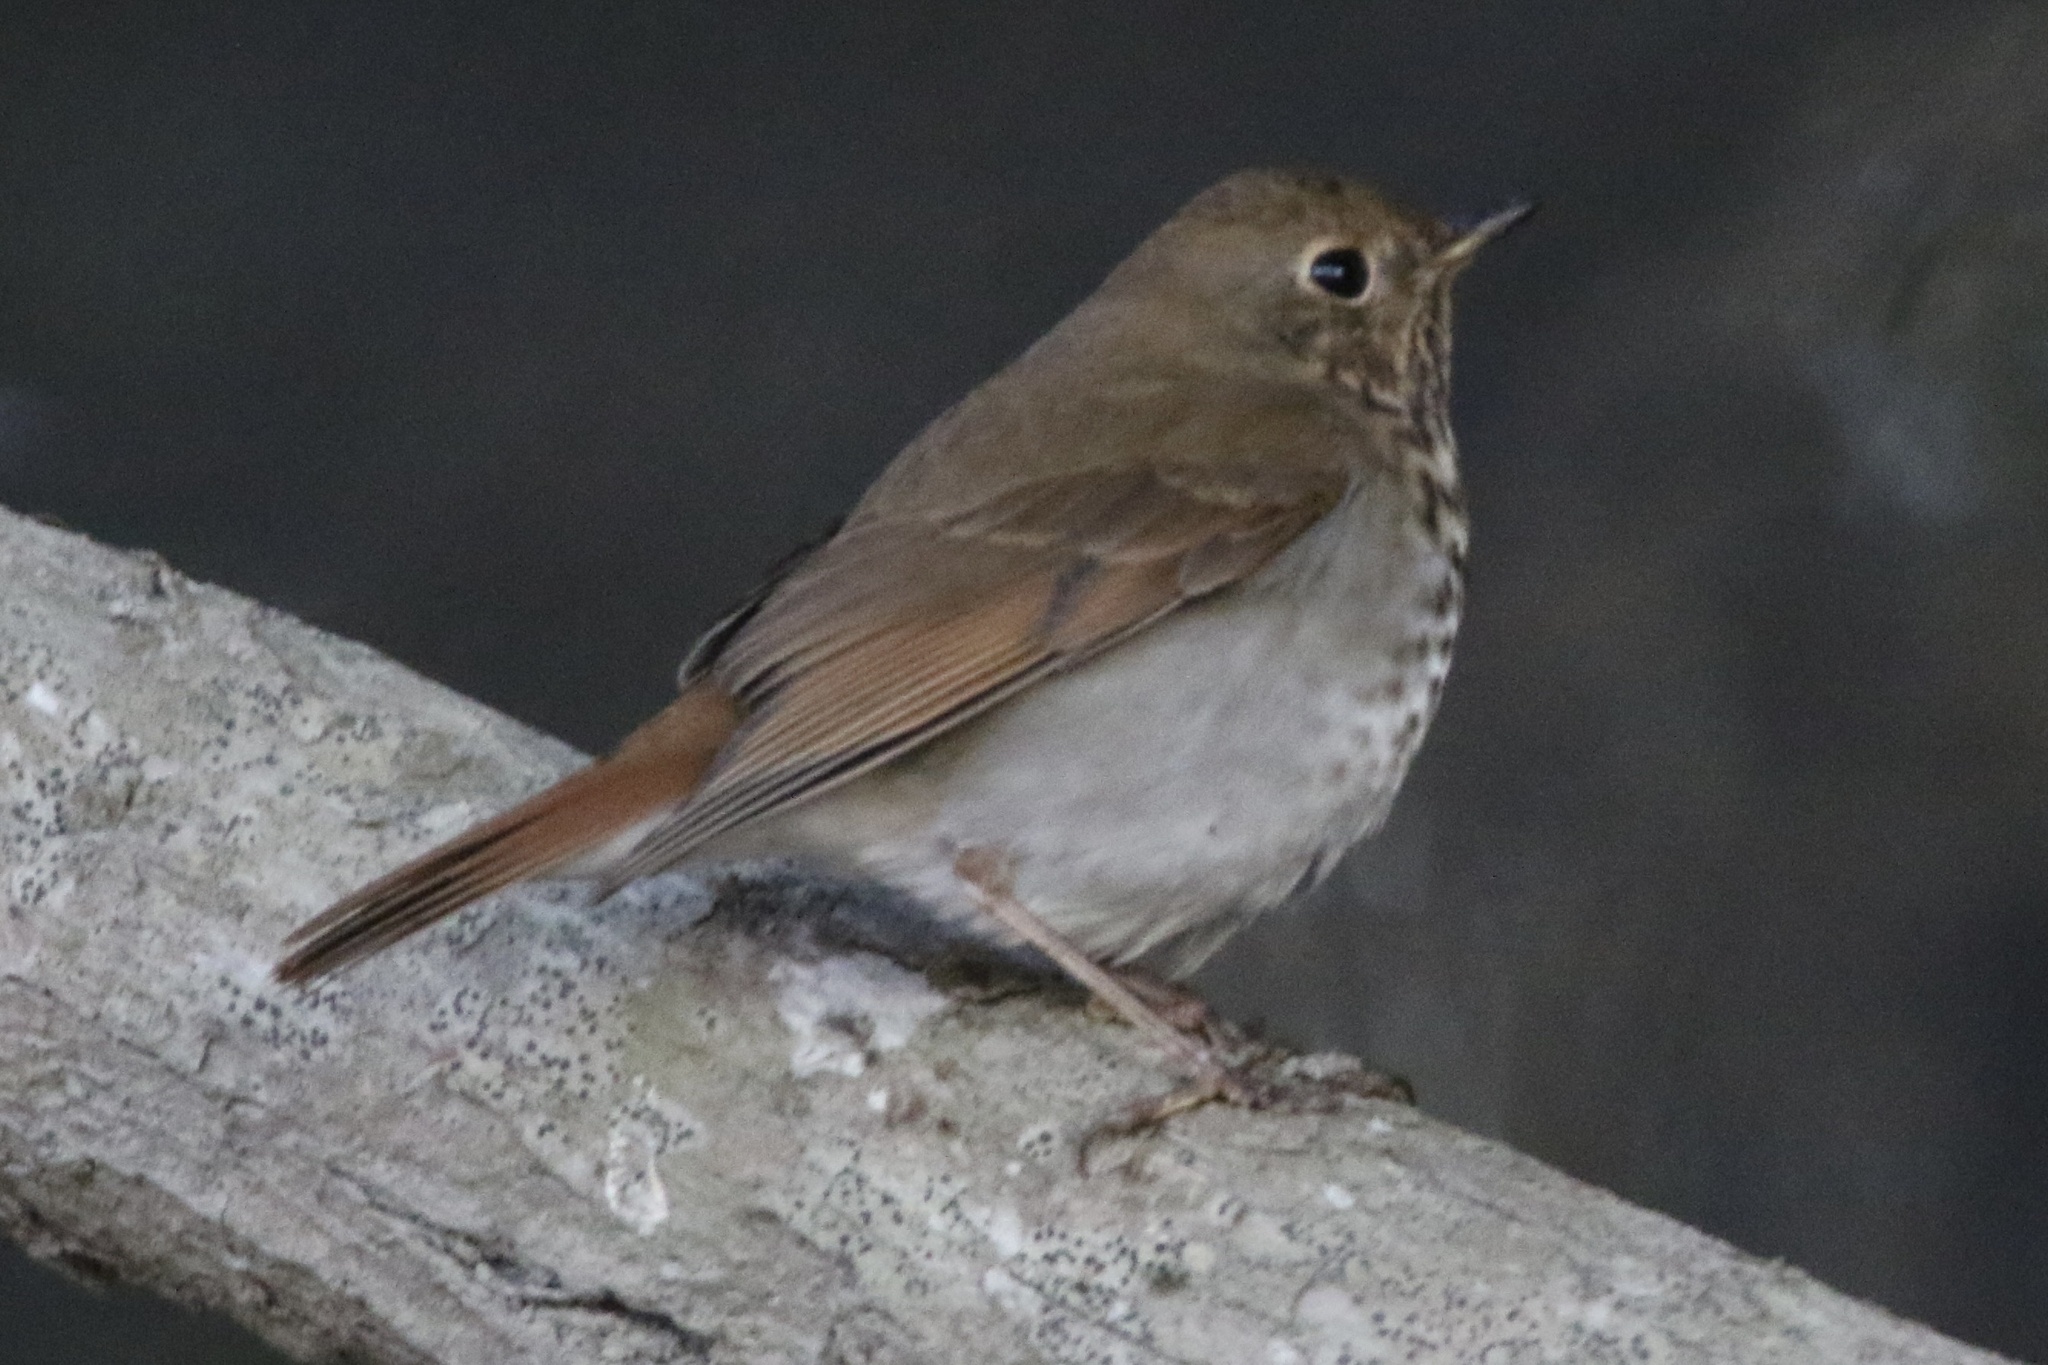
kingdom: Animalia
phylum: Chordata
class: Aves
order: Passeriformes
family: Turdidae
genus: Catharus
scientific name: Catharus guttatus
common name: Hermit thrush
